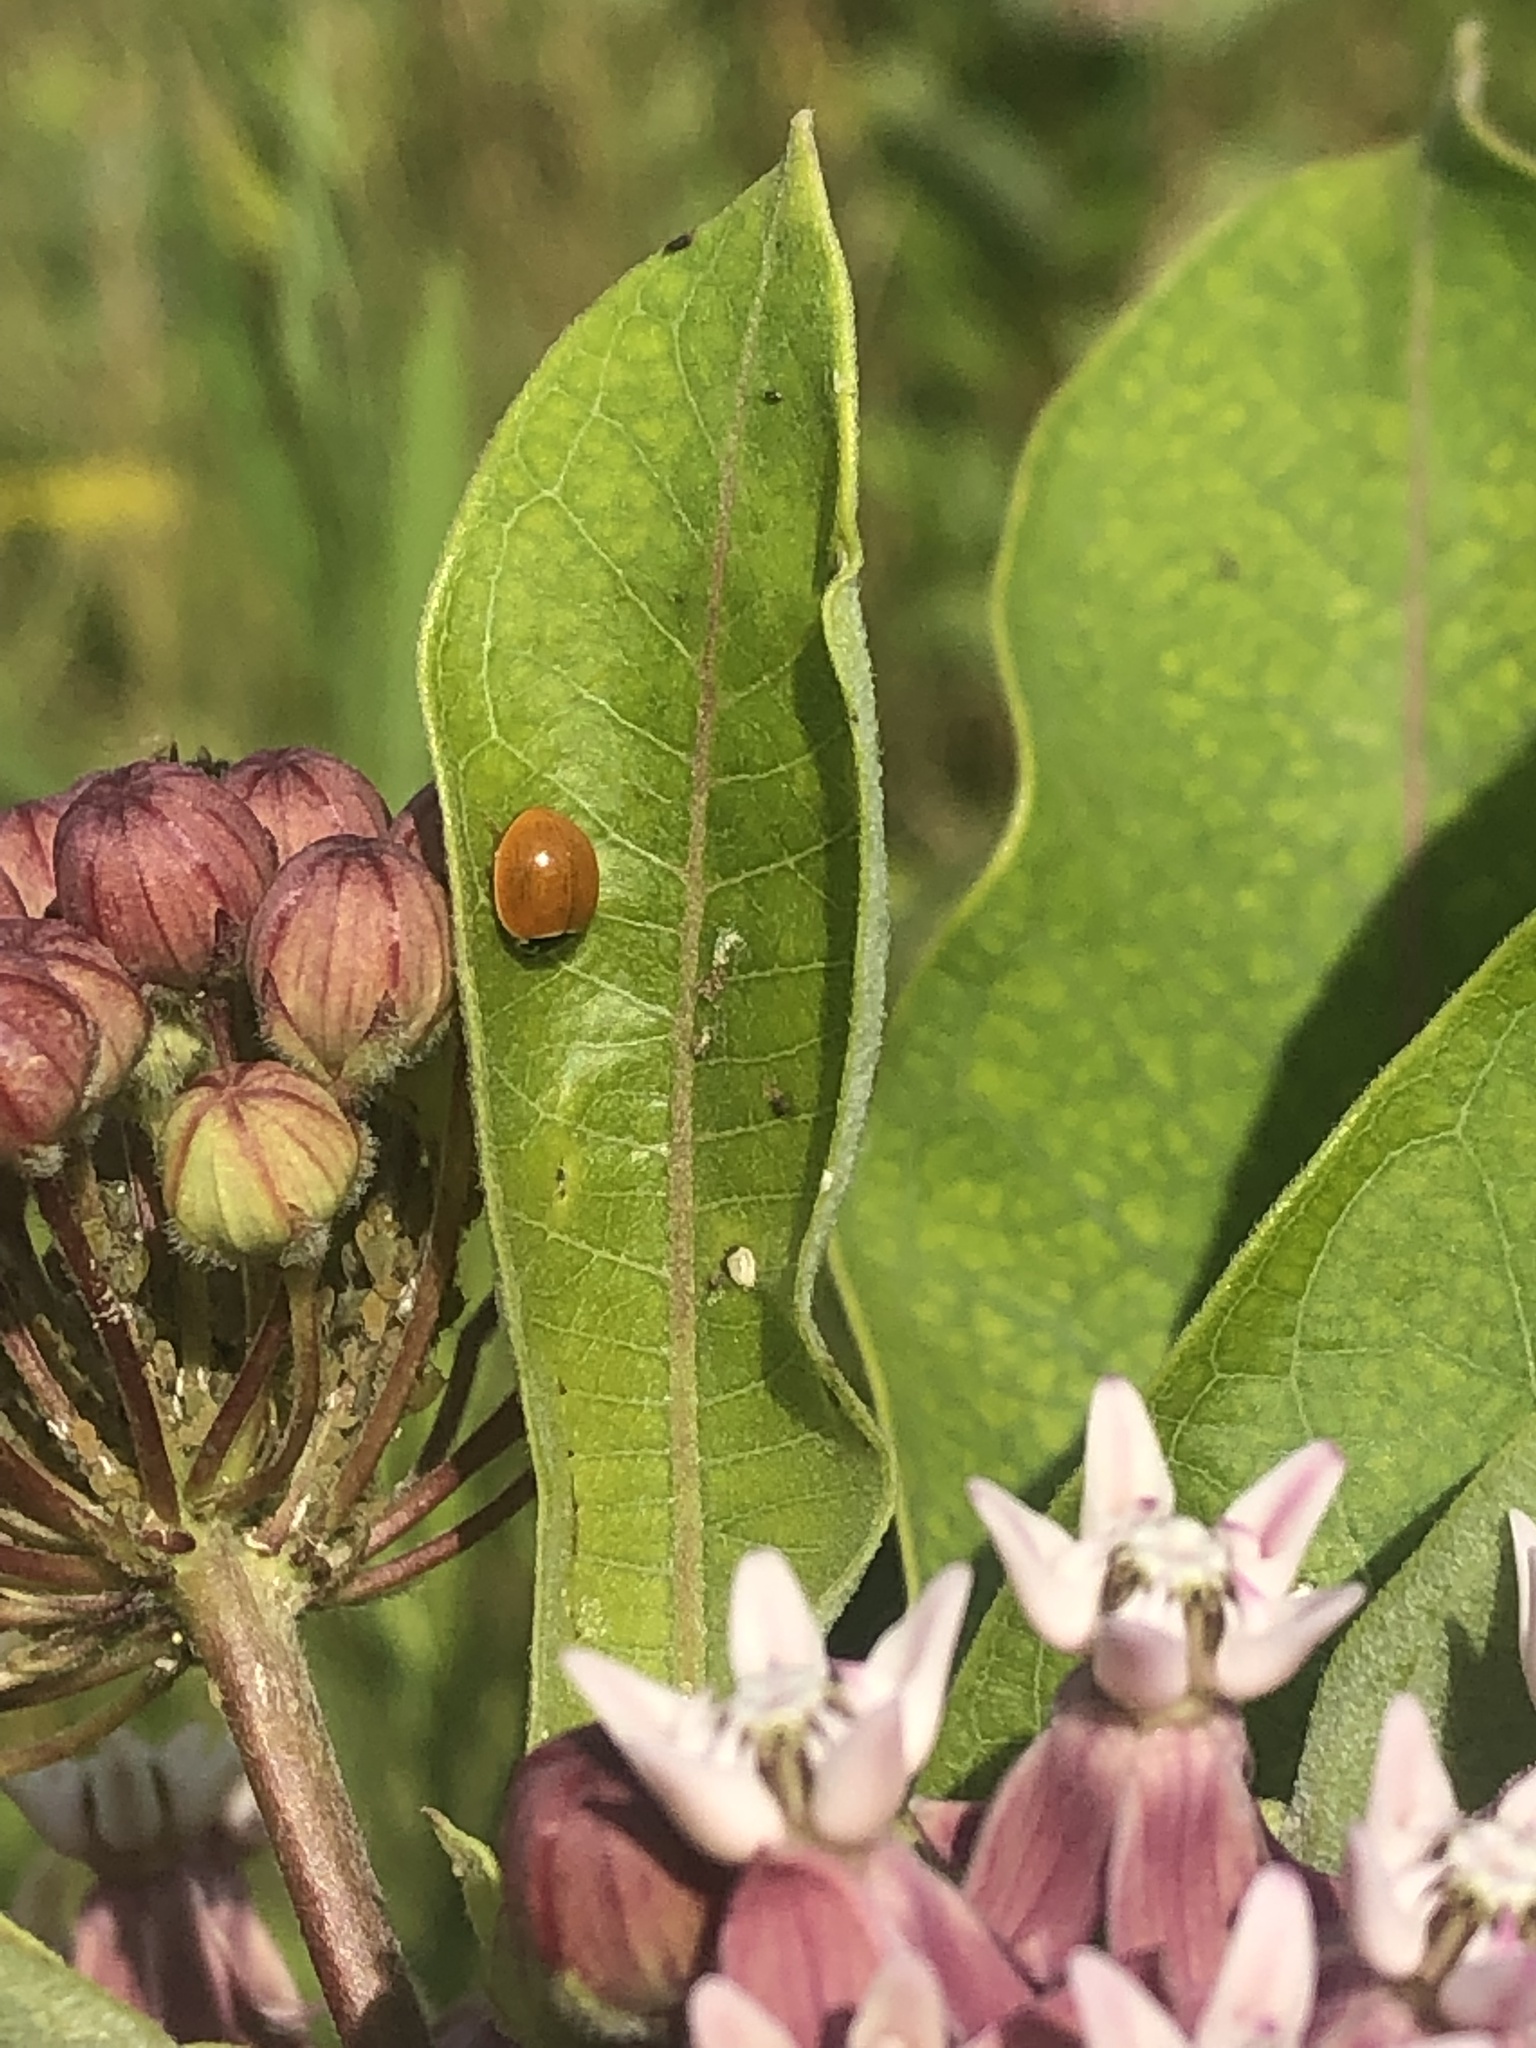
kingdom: Animalia
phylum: Arthropoda
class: Insecta
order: Coleoptera
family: Coccinellidae
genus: Cycloneda
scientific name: Cycloneda munda
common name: Polished lady beetle
